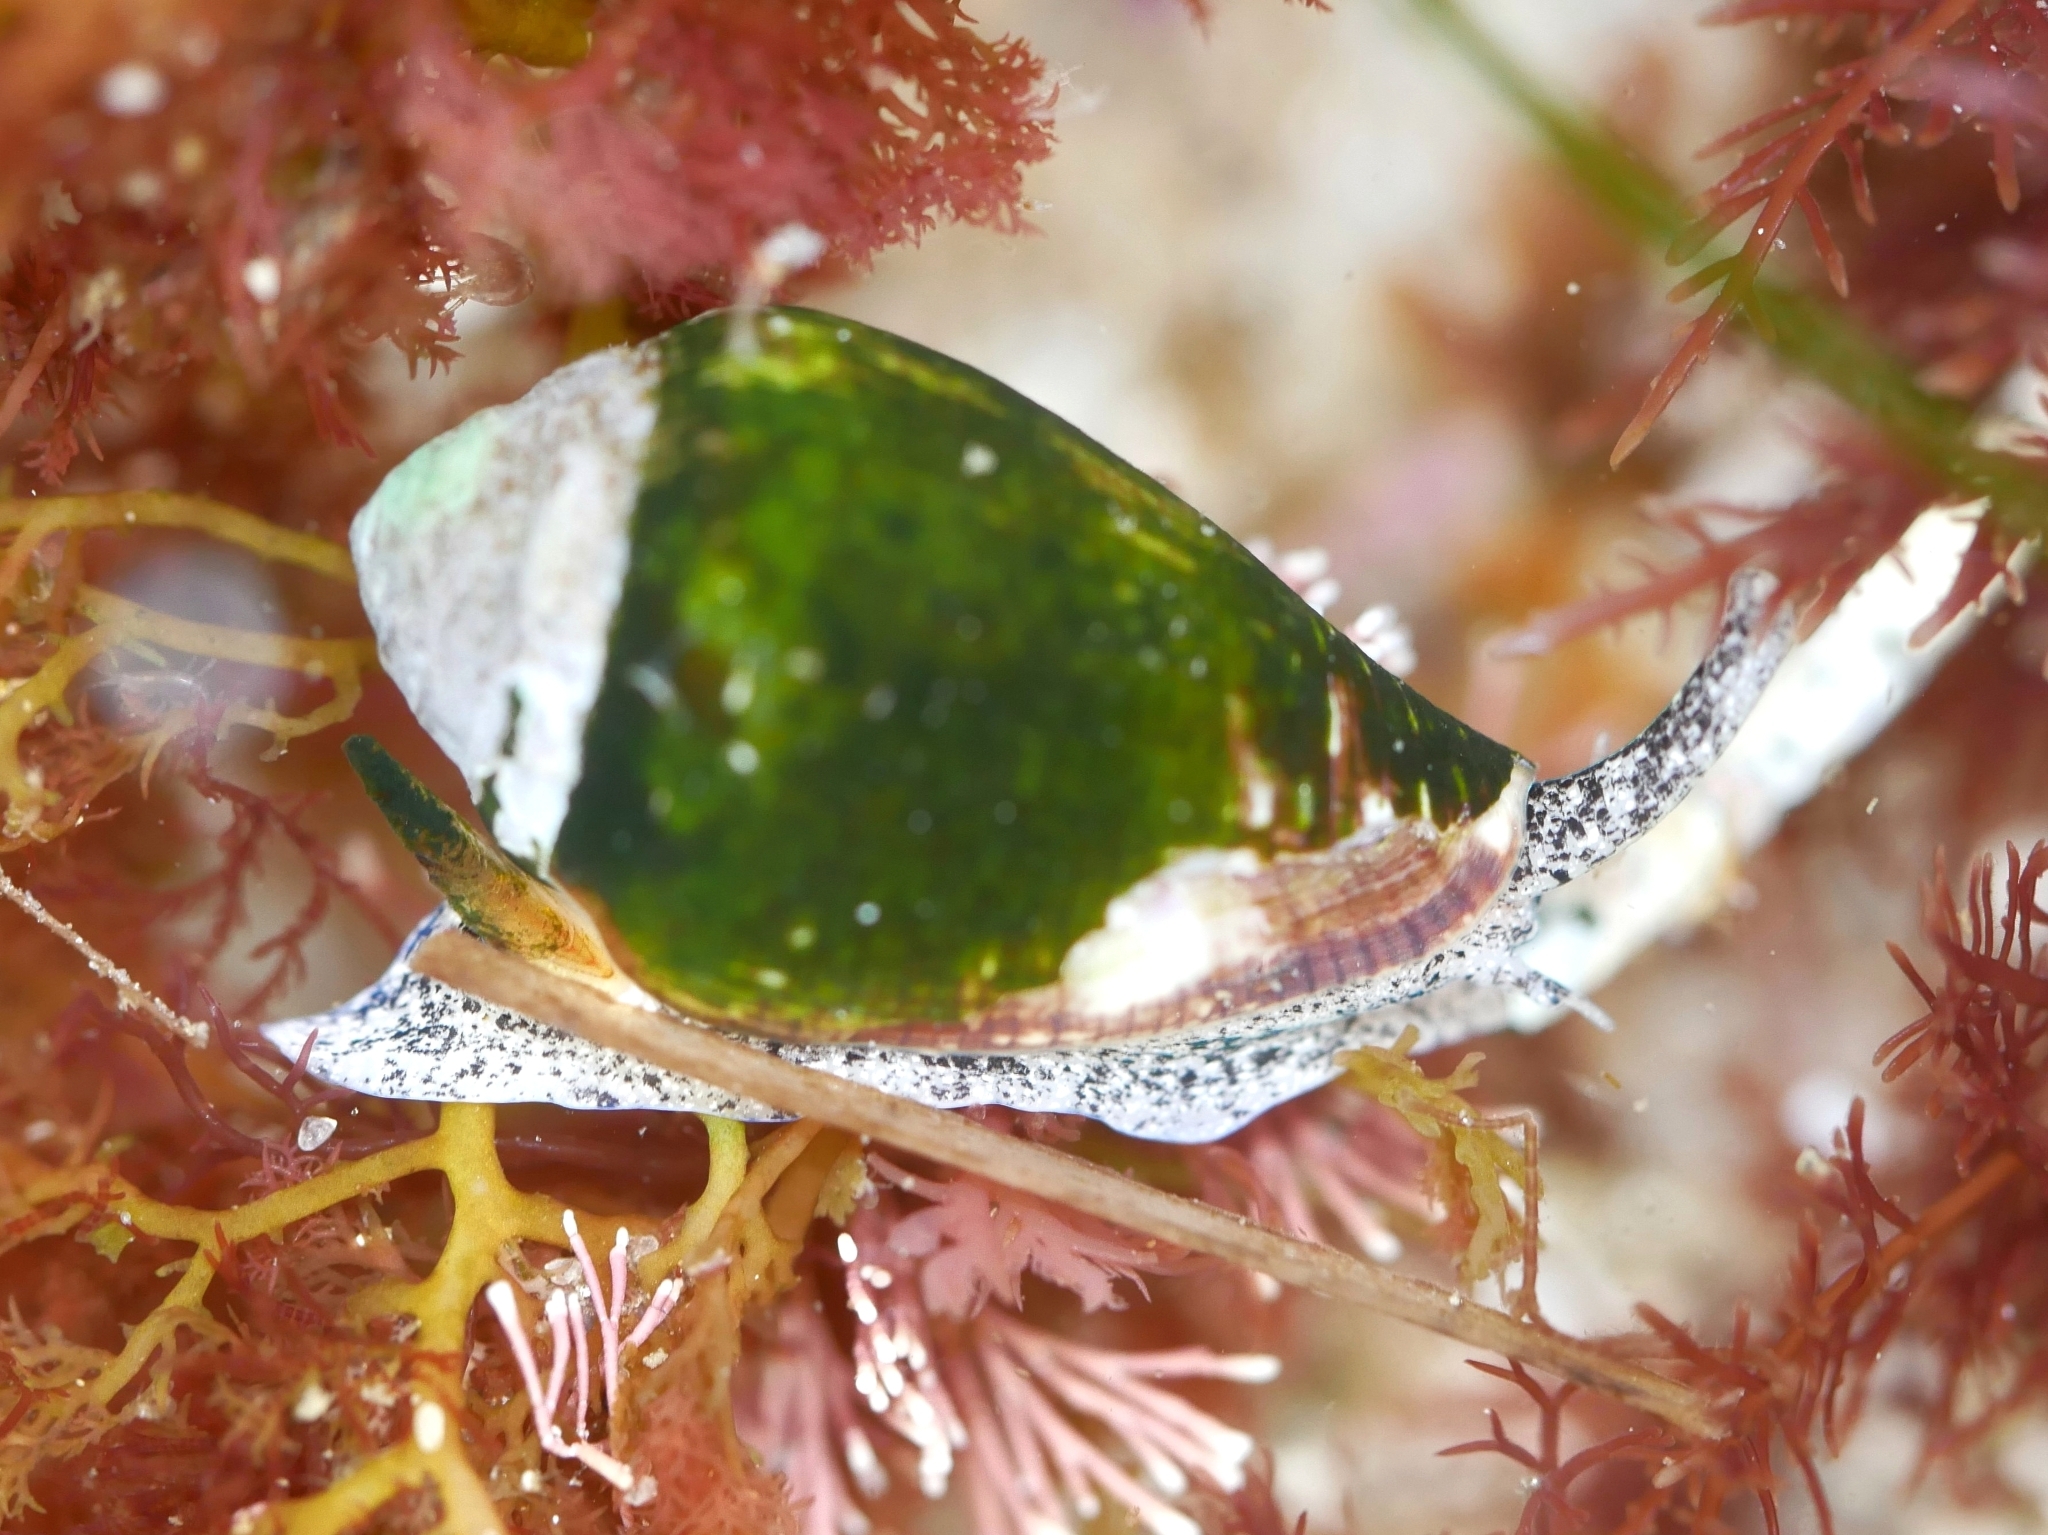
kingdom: Animalia
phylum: Mollusca
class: Gastropoda
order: Neogastropoda
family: Conidae
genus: Californiconus
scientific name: Californiconus californicus
